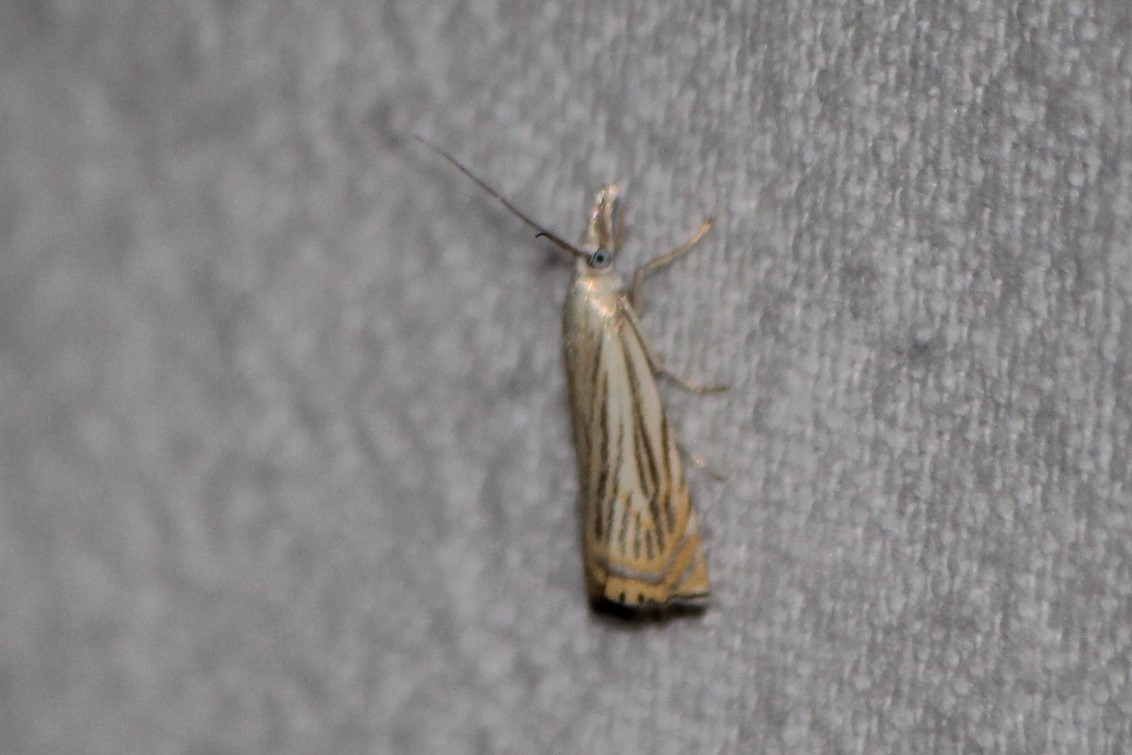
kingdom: Animalia
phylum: Arthropoda
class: Insecta
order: Lepidoptera
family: Crambidae
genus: Chrysoteuchia
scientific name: Chrysoteuchia topiarius
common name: Topiary grass-veneer
